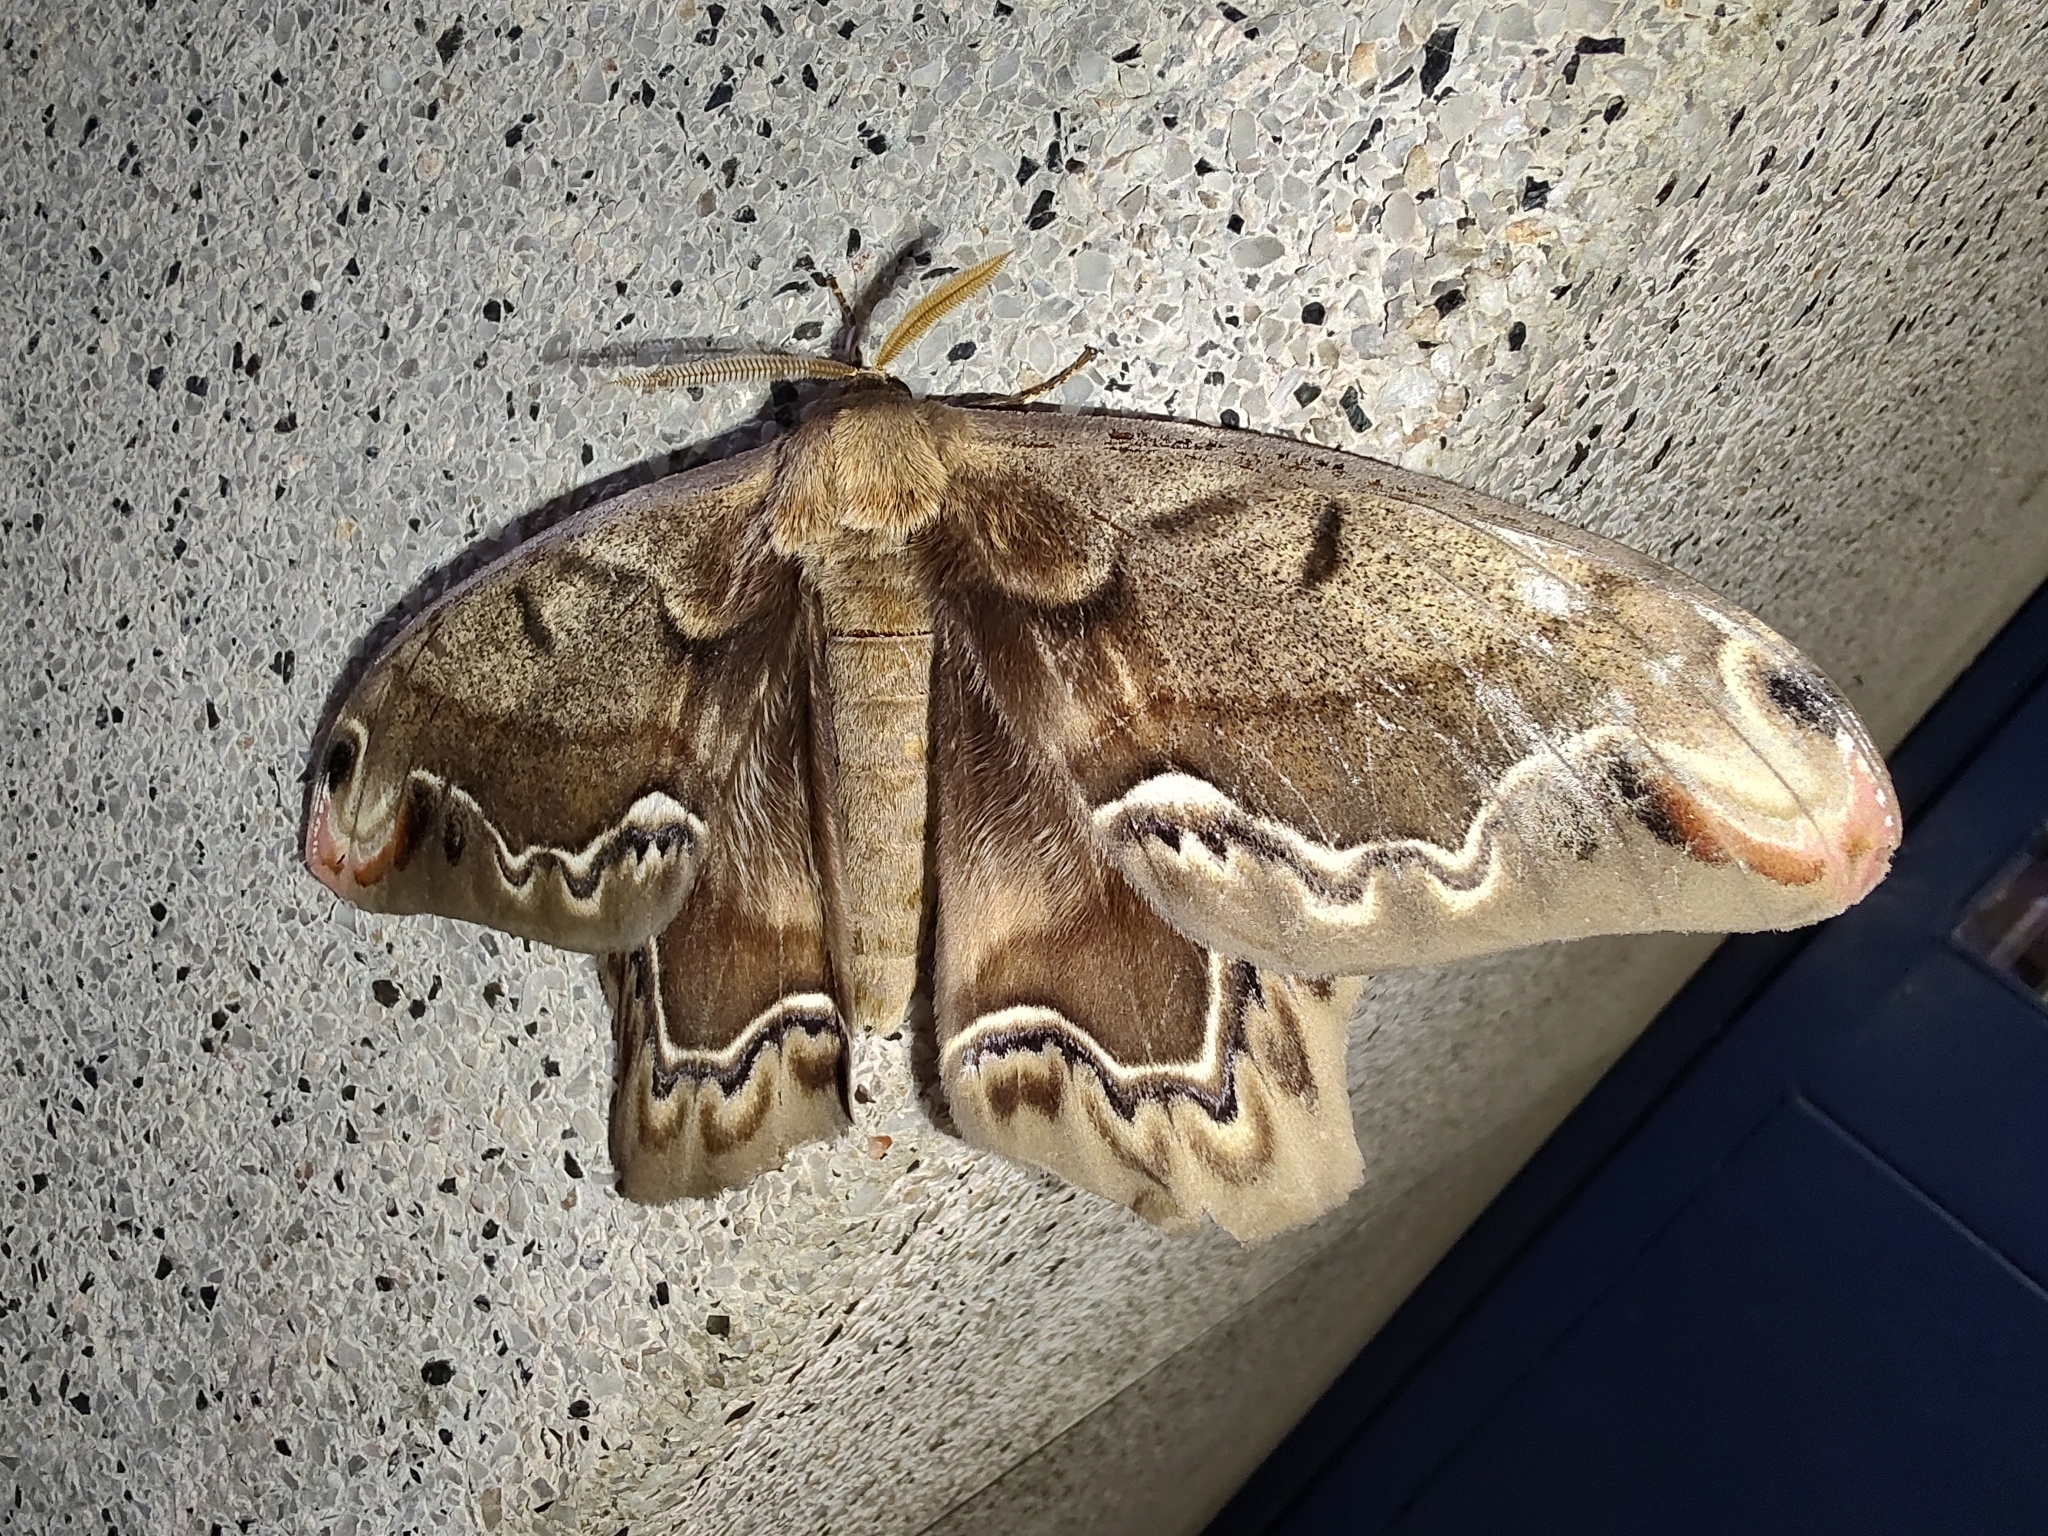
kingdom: Animalia
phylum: Arthropoda
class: Insecta
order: Lepidoptera
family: Saturniidae
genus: Arsenura
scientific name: Arsenura biundulata
